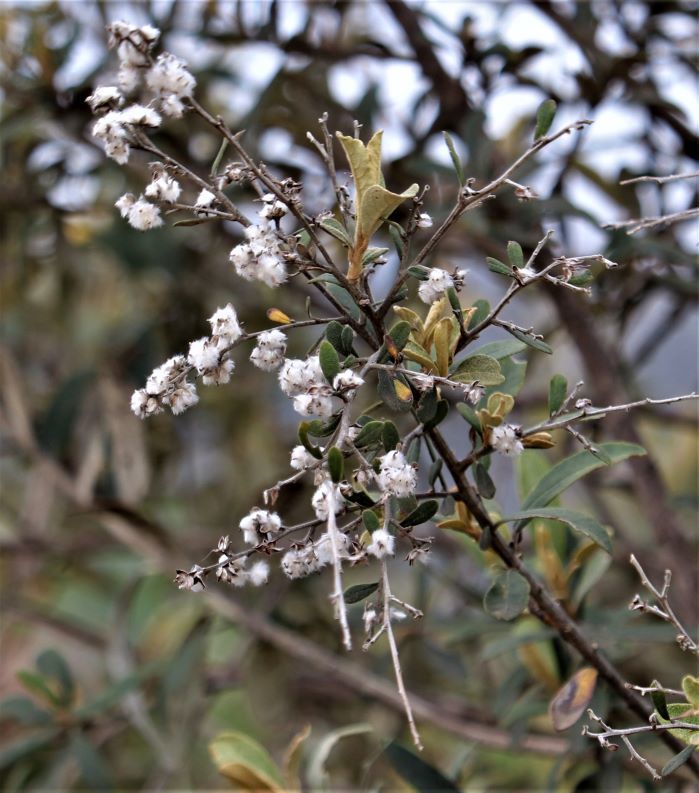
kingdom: Plantae
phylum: Tracheophyta
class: Magnoliopsida
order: Asterales
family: Asteraceae
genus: Tarchonanthus
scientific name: Tarchonanthus littoralis
